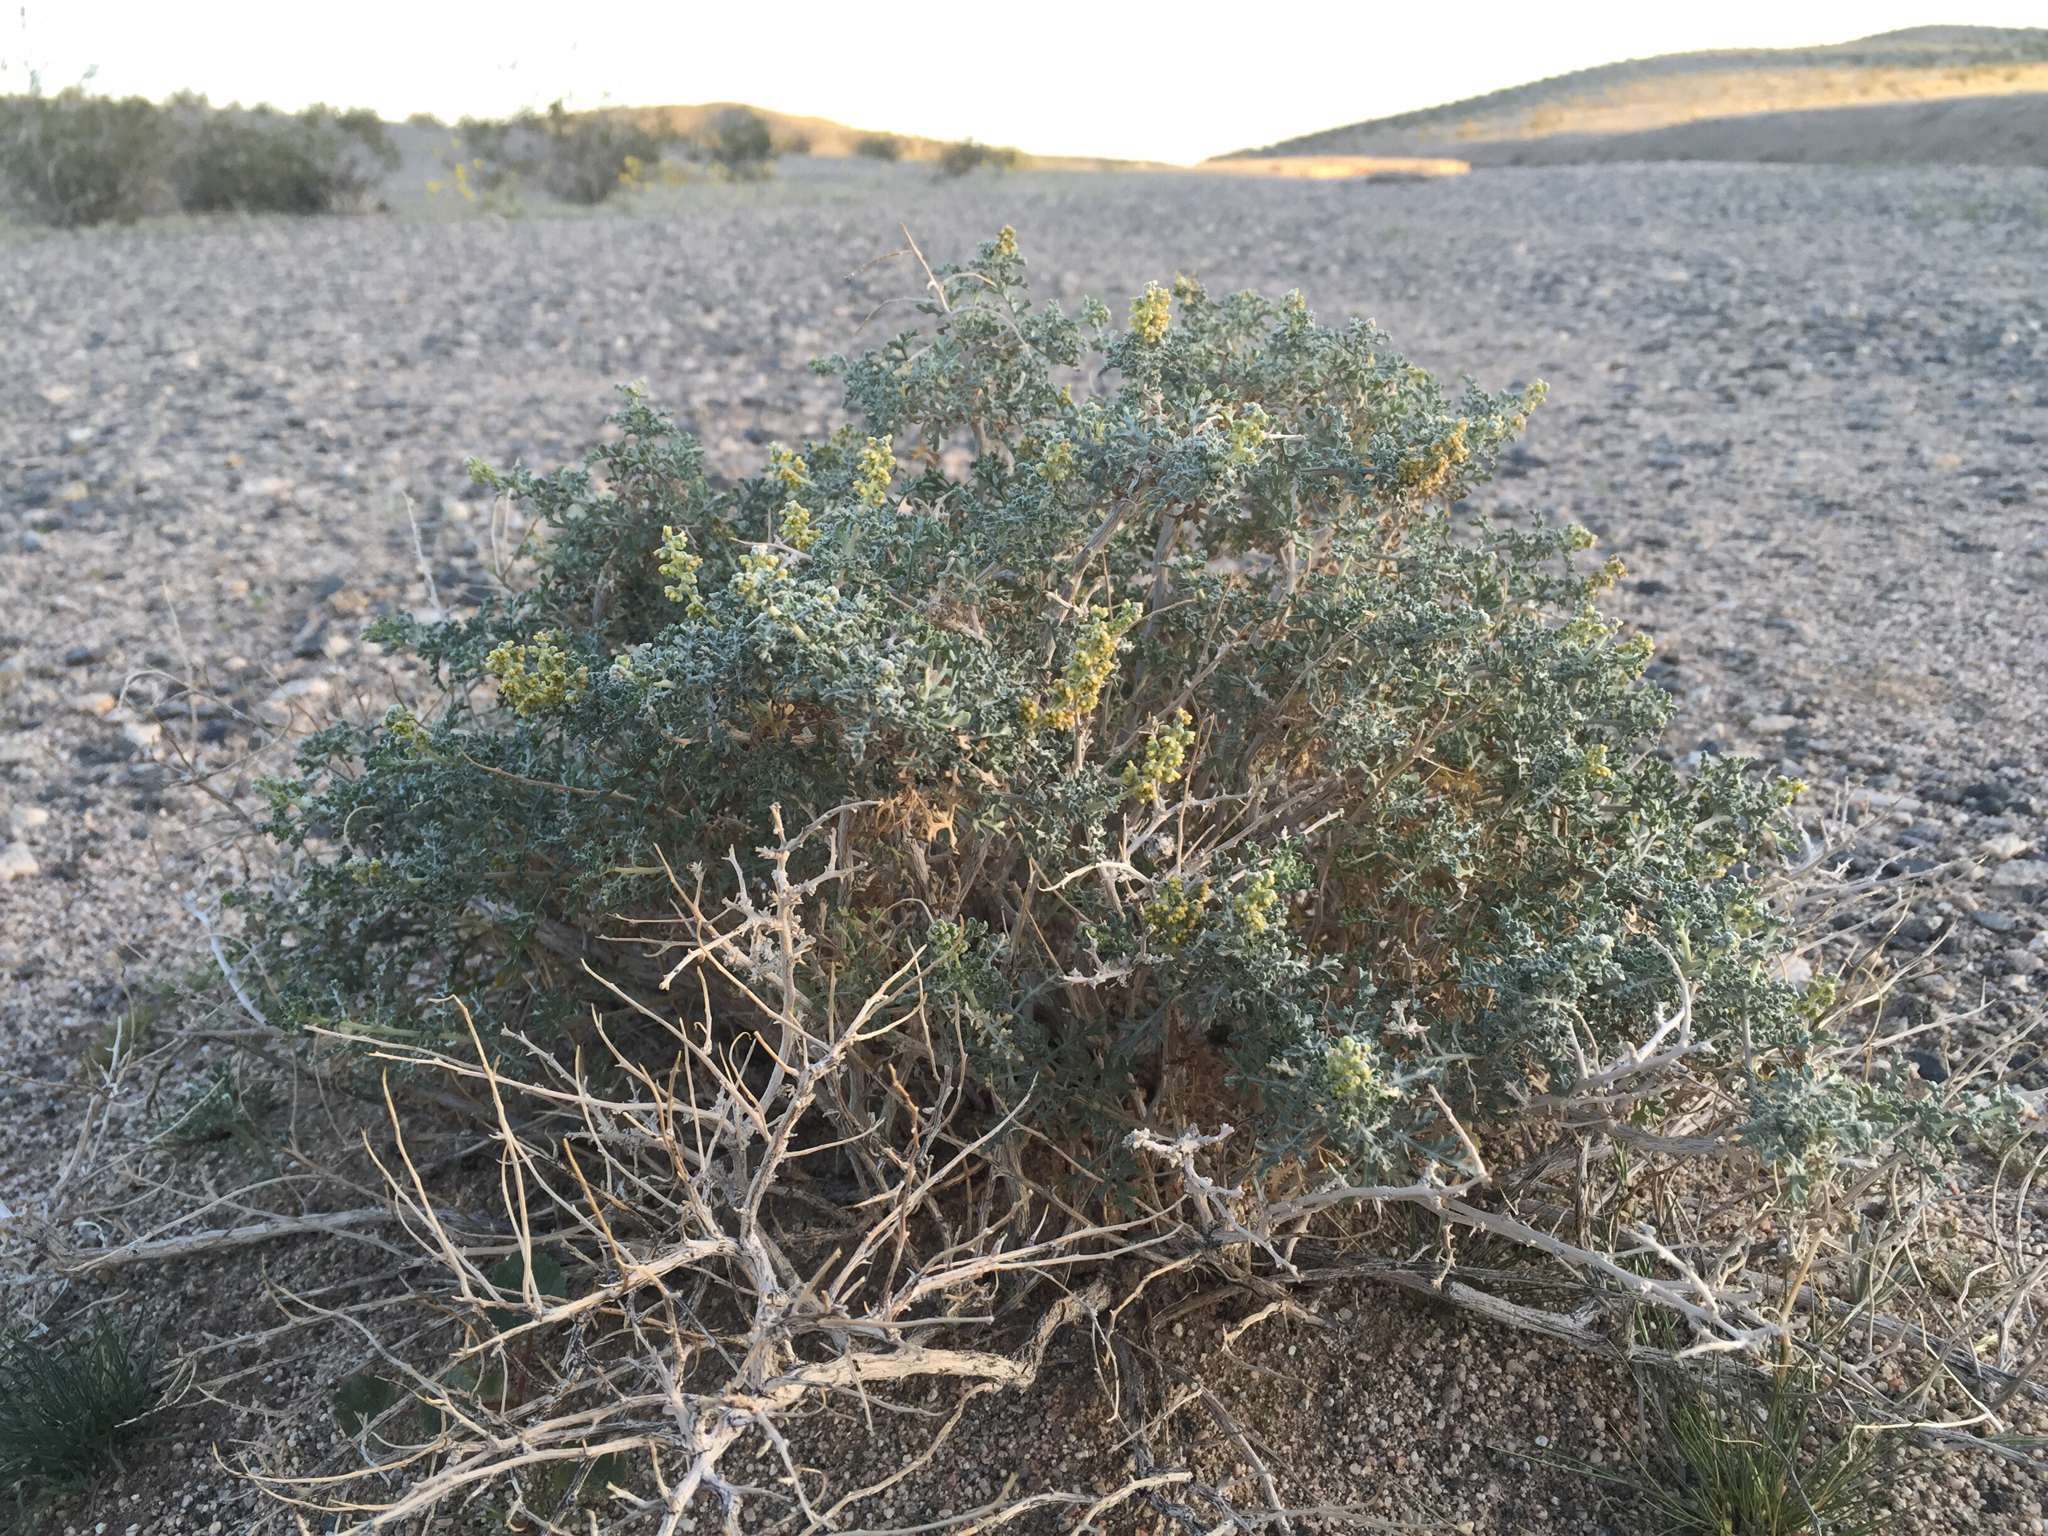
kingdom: Plantae
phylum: Tracheophyta
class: Magnoliopsida
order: Asterales
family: Asteraceae
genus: Ambrosia
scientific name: Ambrosia dumosa
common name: Bur-sage
